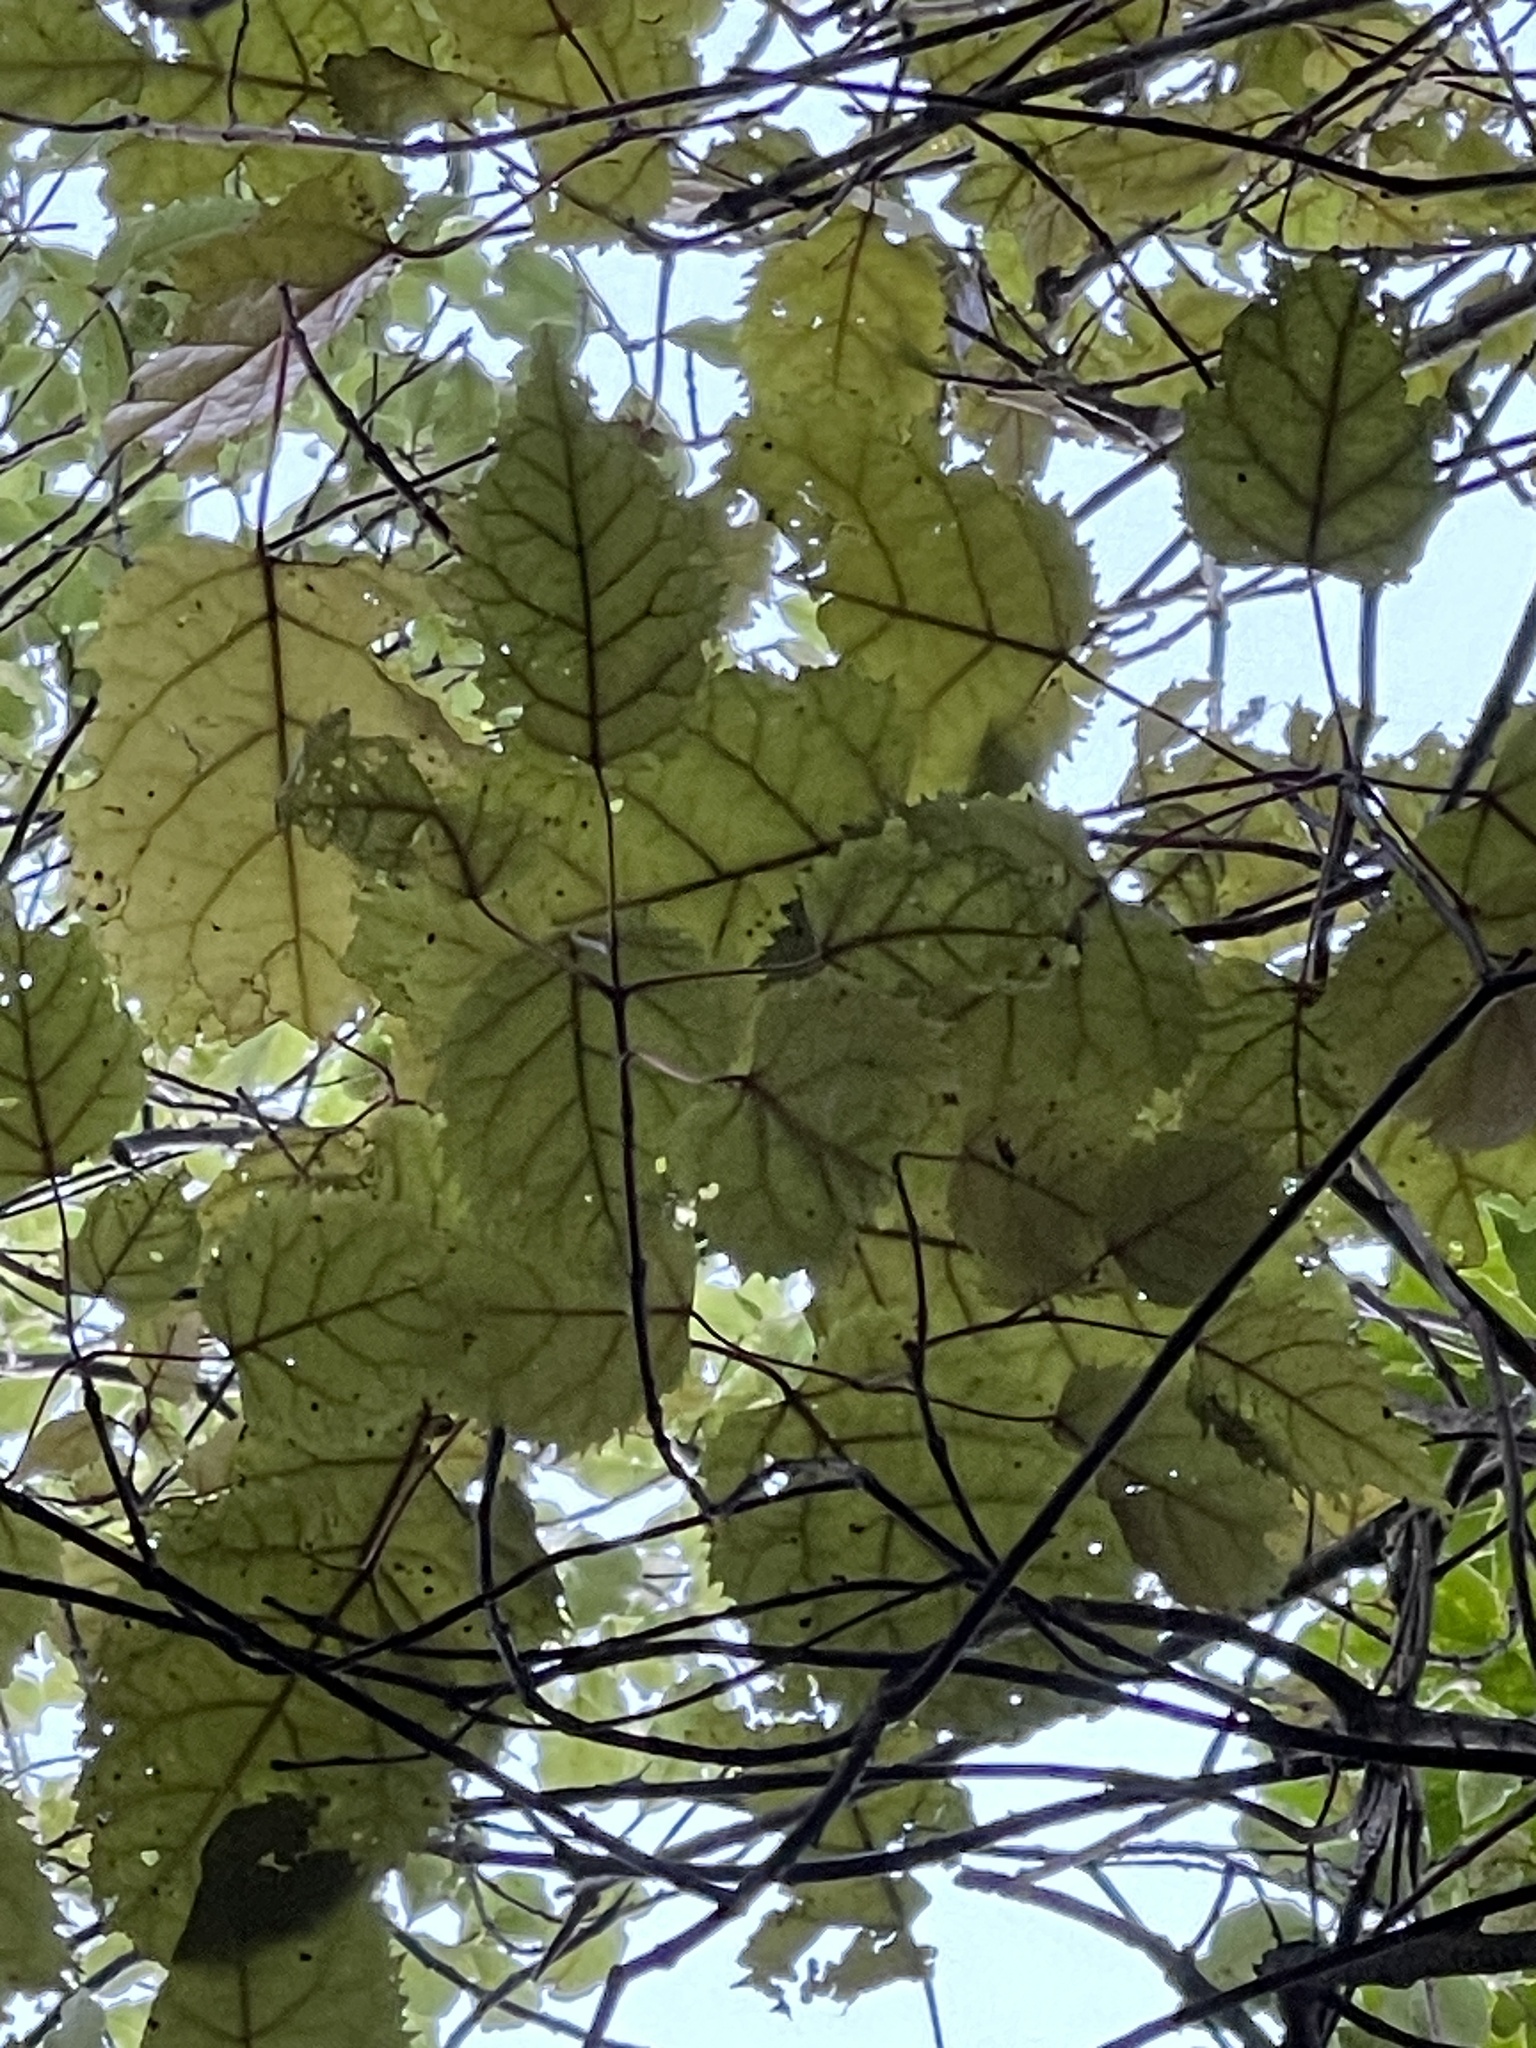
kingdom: Plantae
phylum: Tracheophyta
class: Magnoliopsida
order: Oxalidales
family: Elaeocarpaceae
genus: Aristotelia
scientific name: Aristotelia serrata
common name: New zealand wineberry
